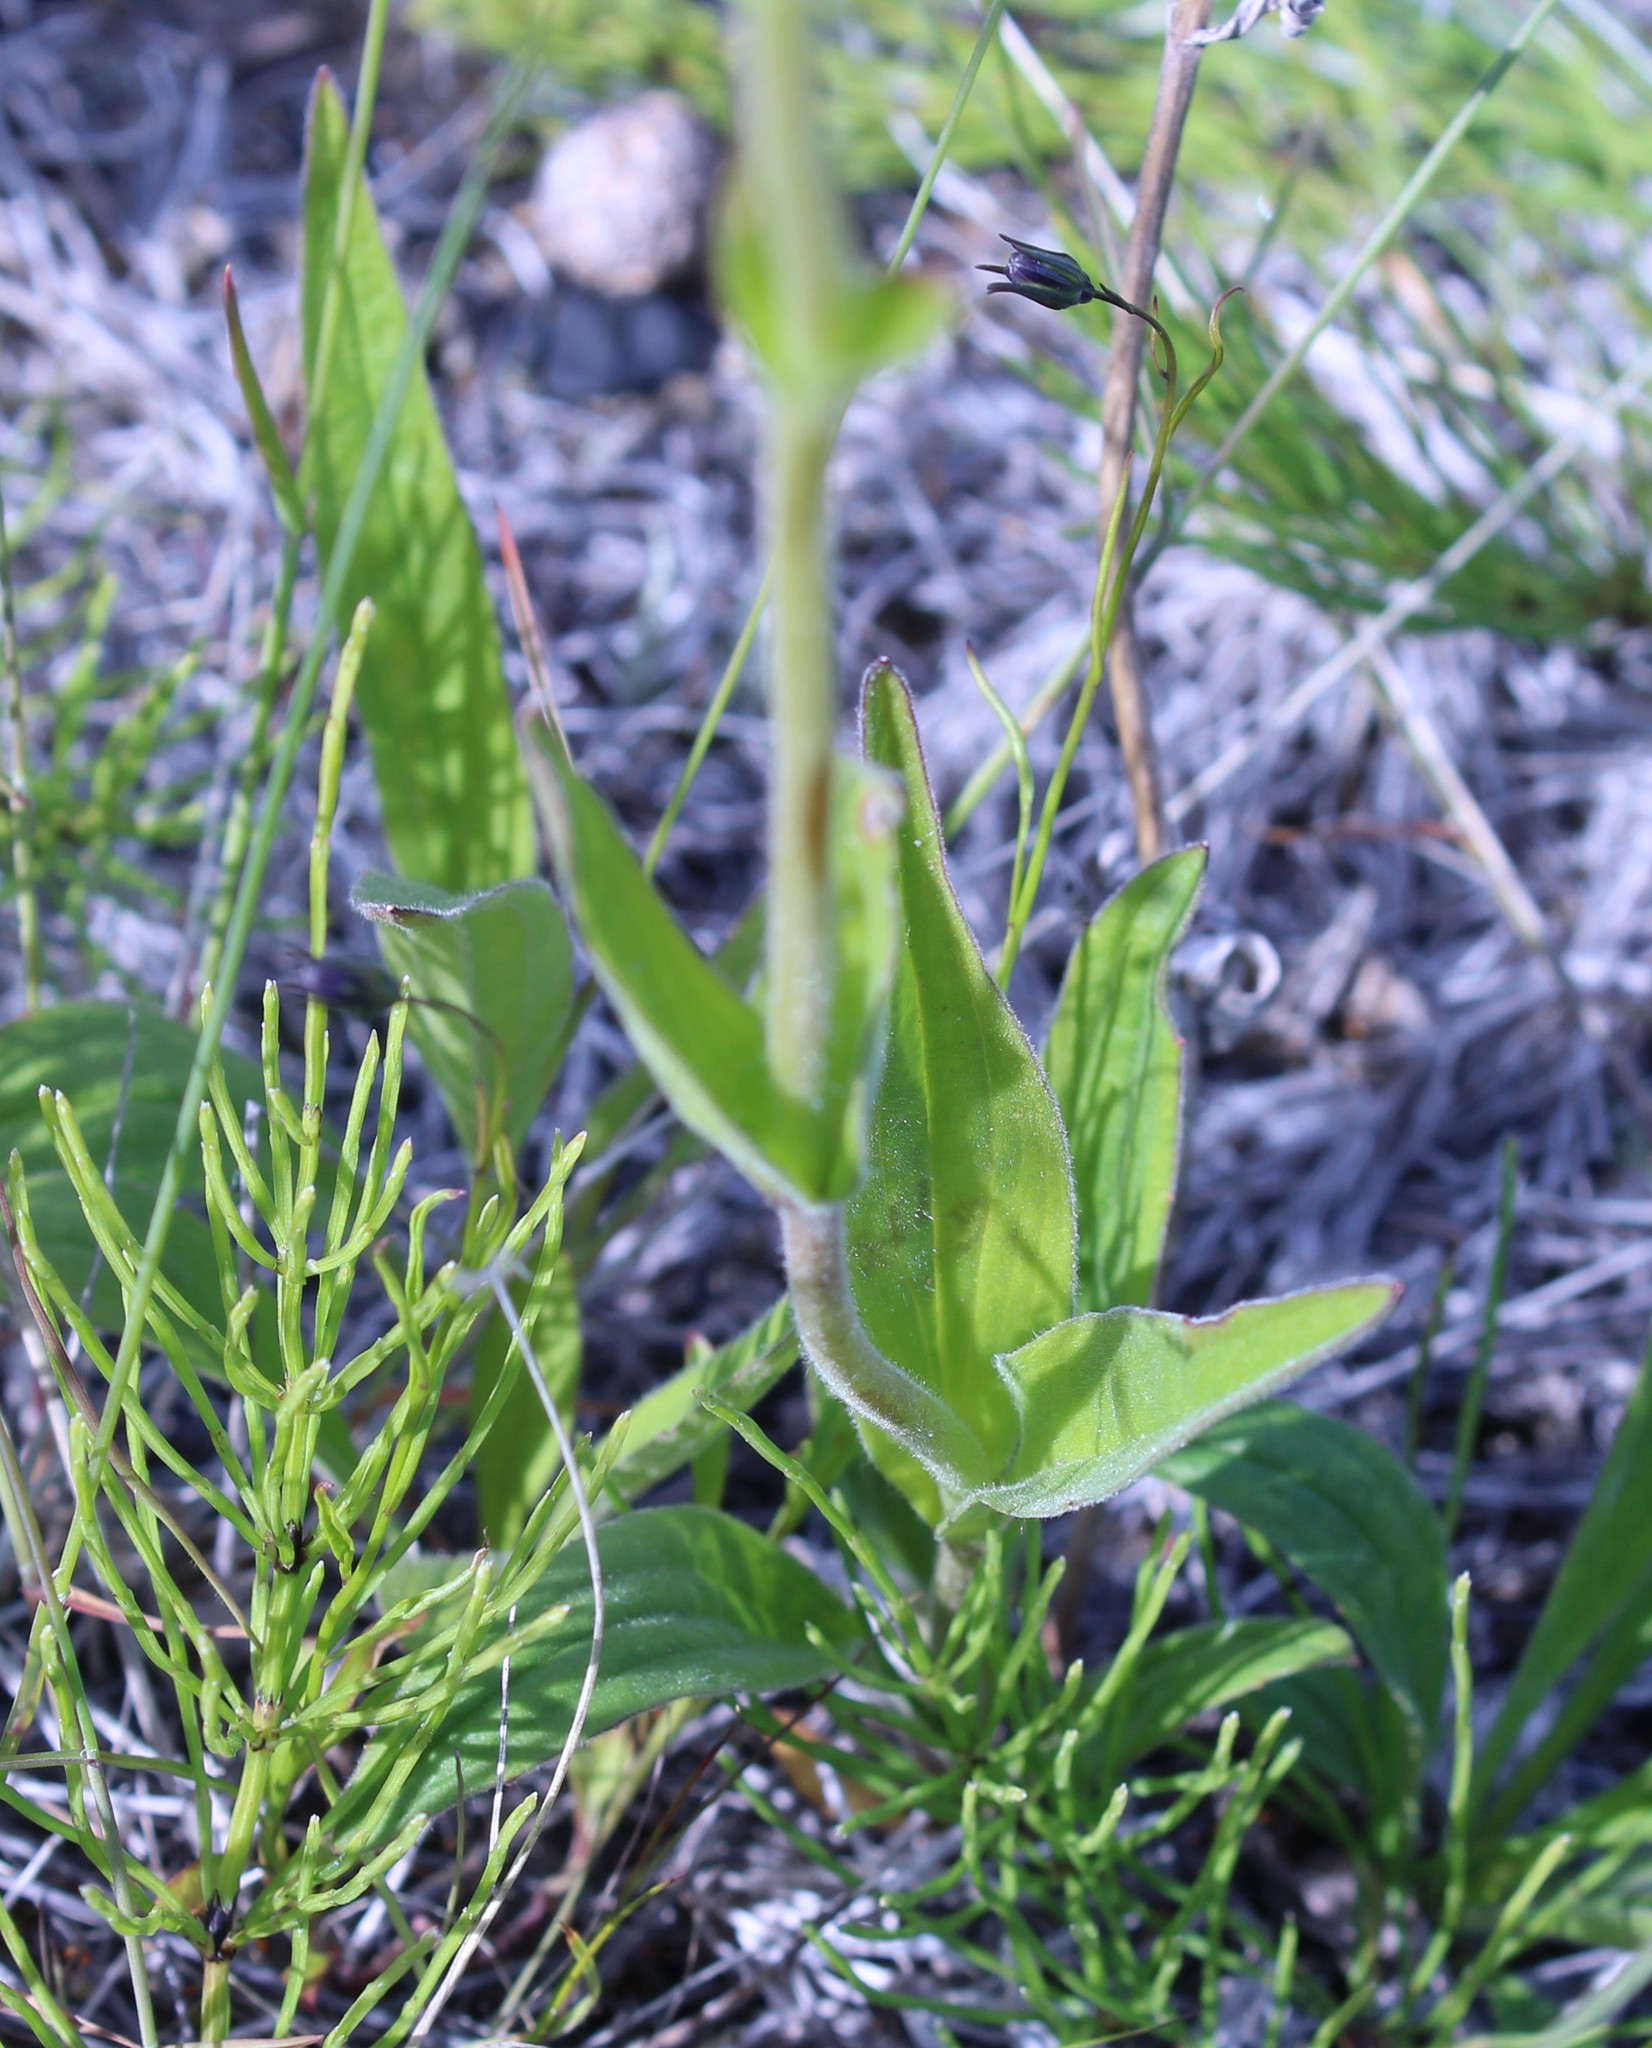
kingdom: Plantae
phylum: Tracheophyta
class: Magnoliopsida
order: Asterales
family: Asteraceae
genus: Arnica
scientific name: Arnica angustifolia
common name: Arctic arnica
